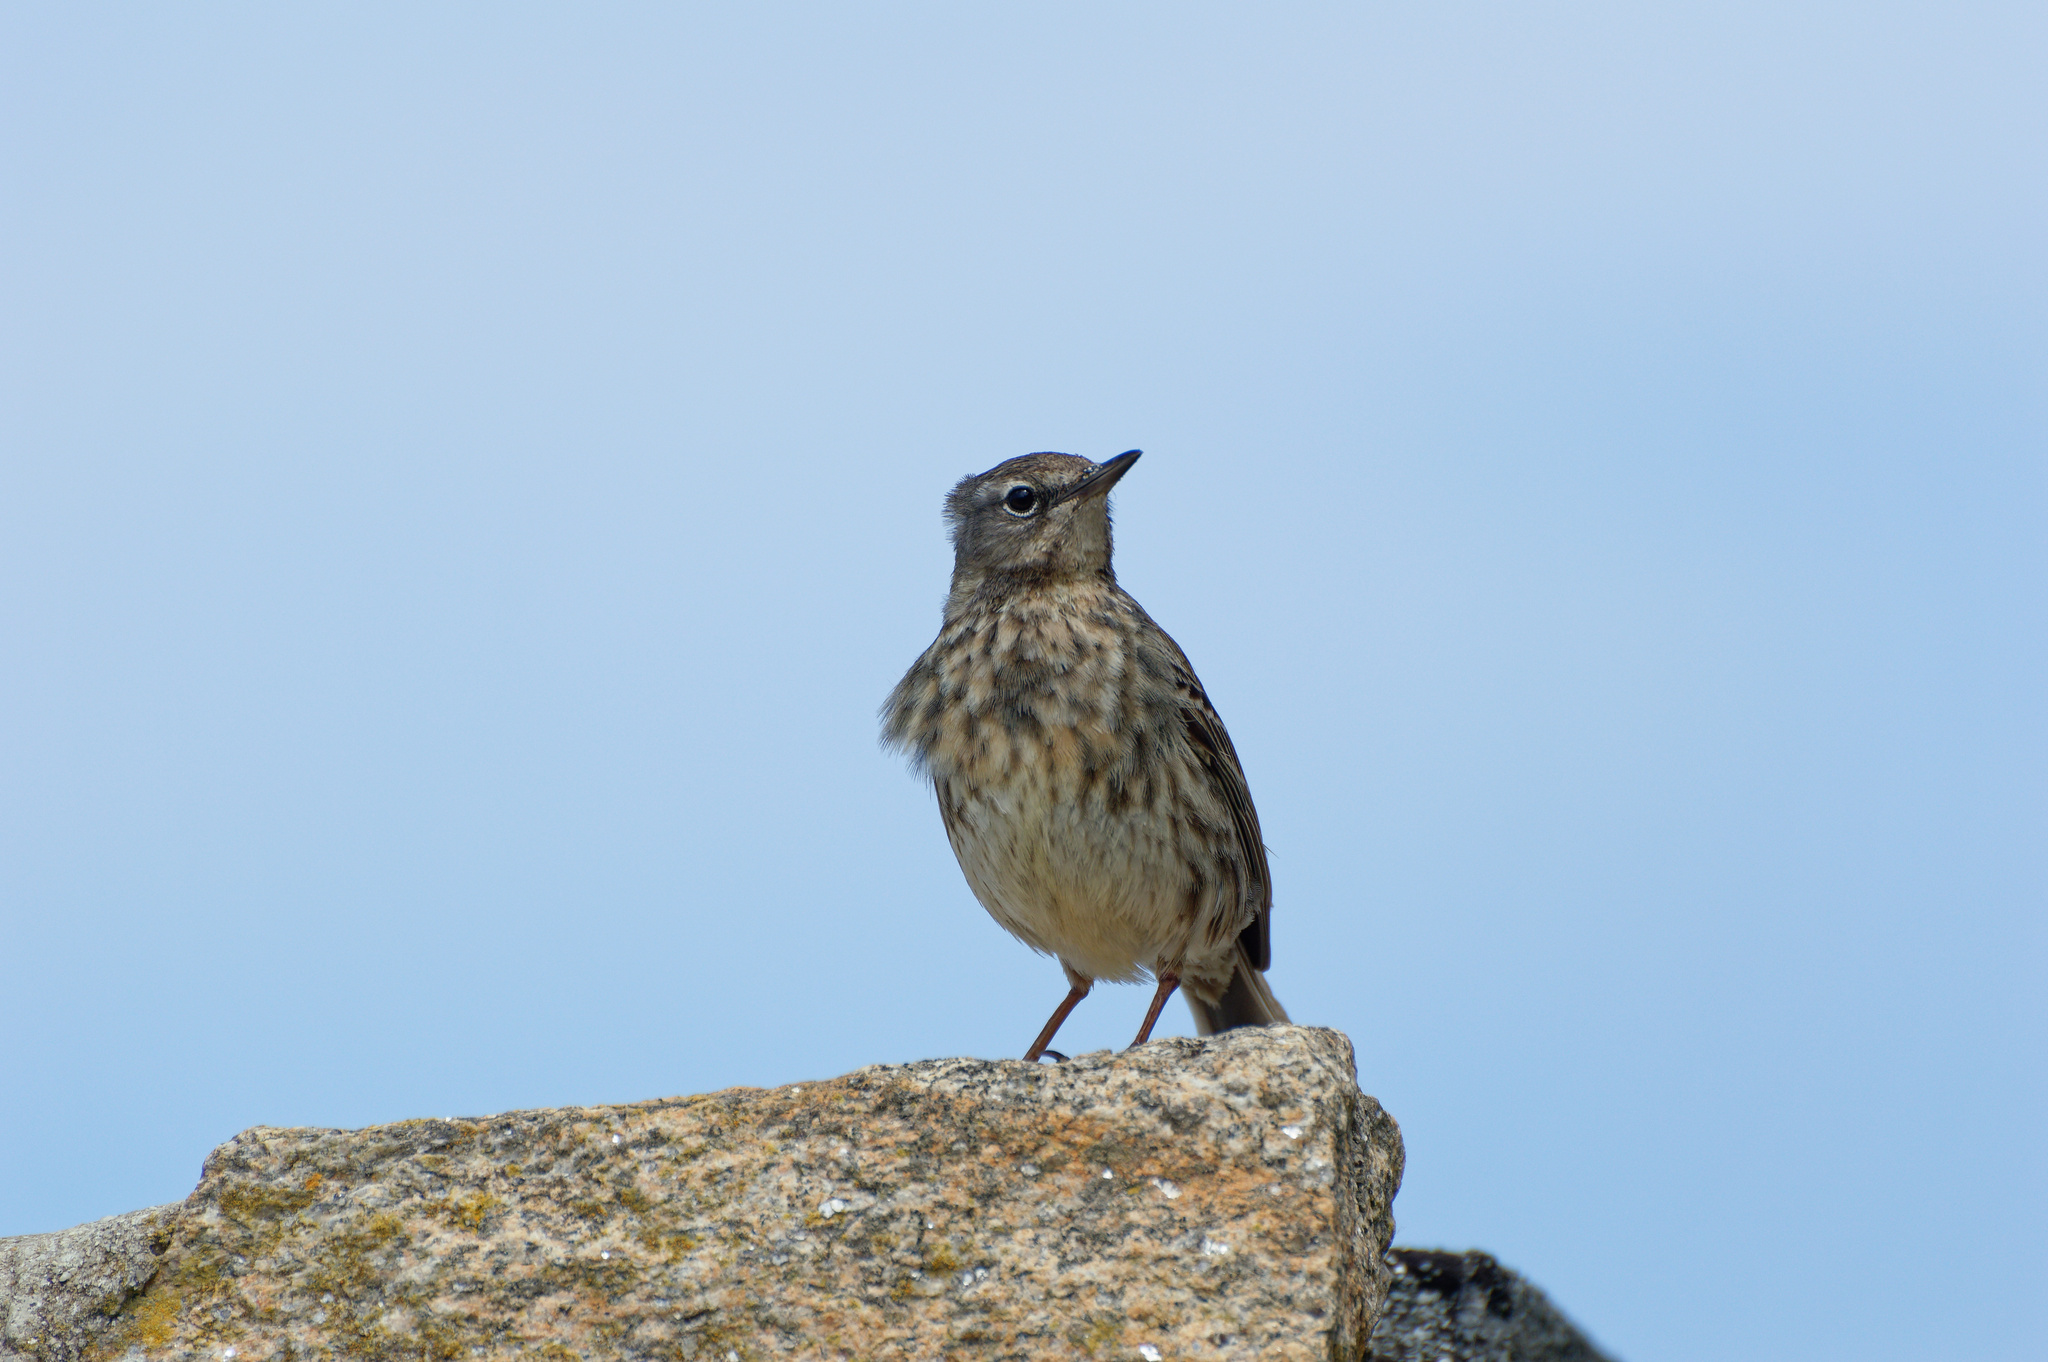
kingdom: Animalia
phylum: Chordata
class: Aves
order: Passeriformes
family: Motacillidae
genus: Anthus
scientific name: Anthus petrosus
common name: Eurasian rock pipit
